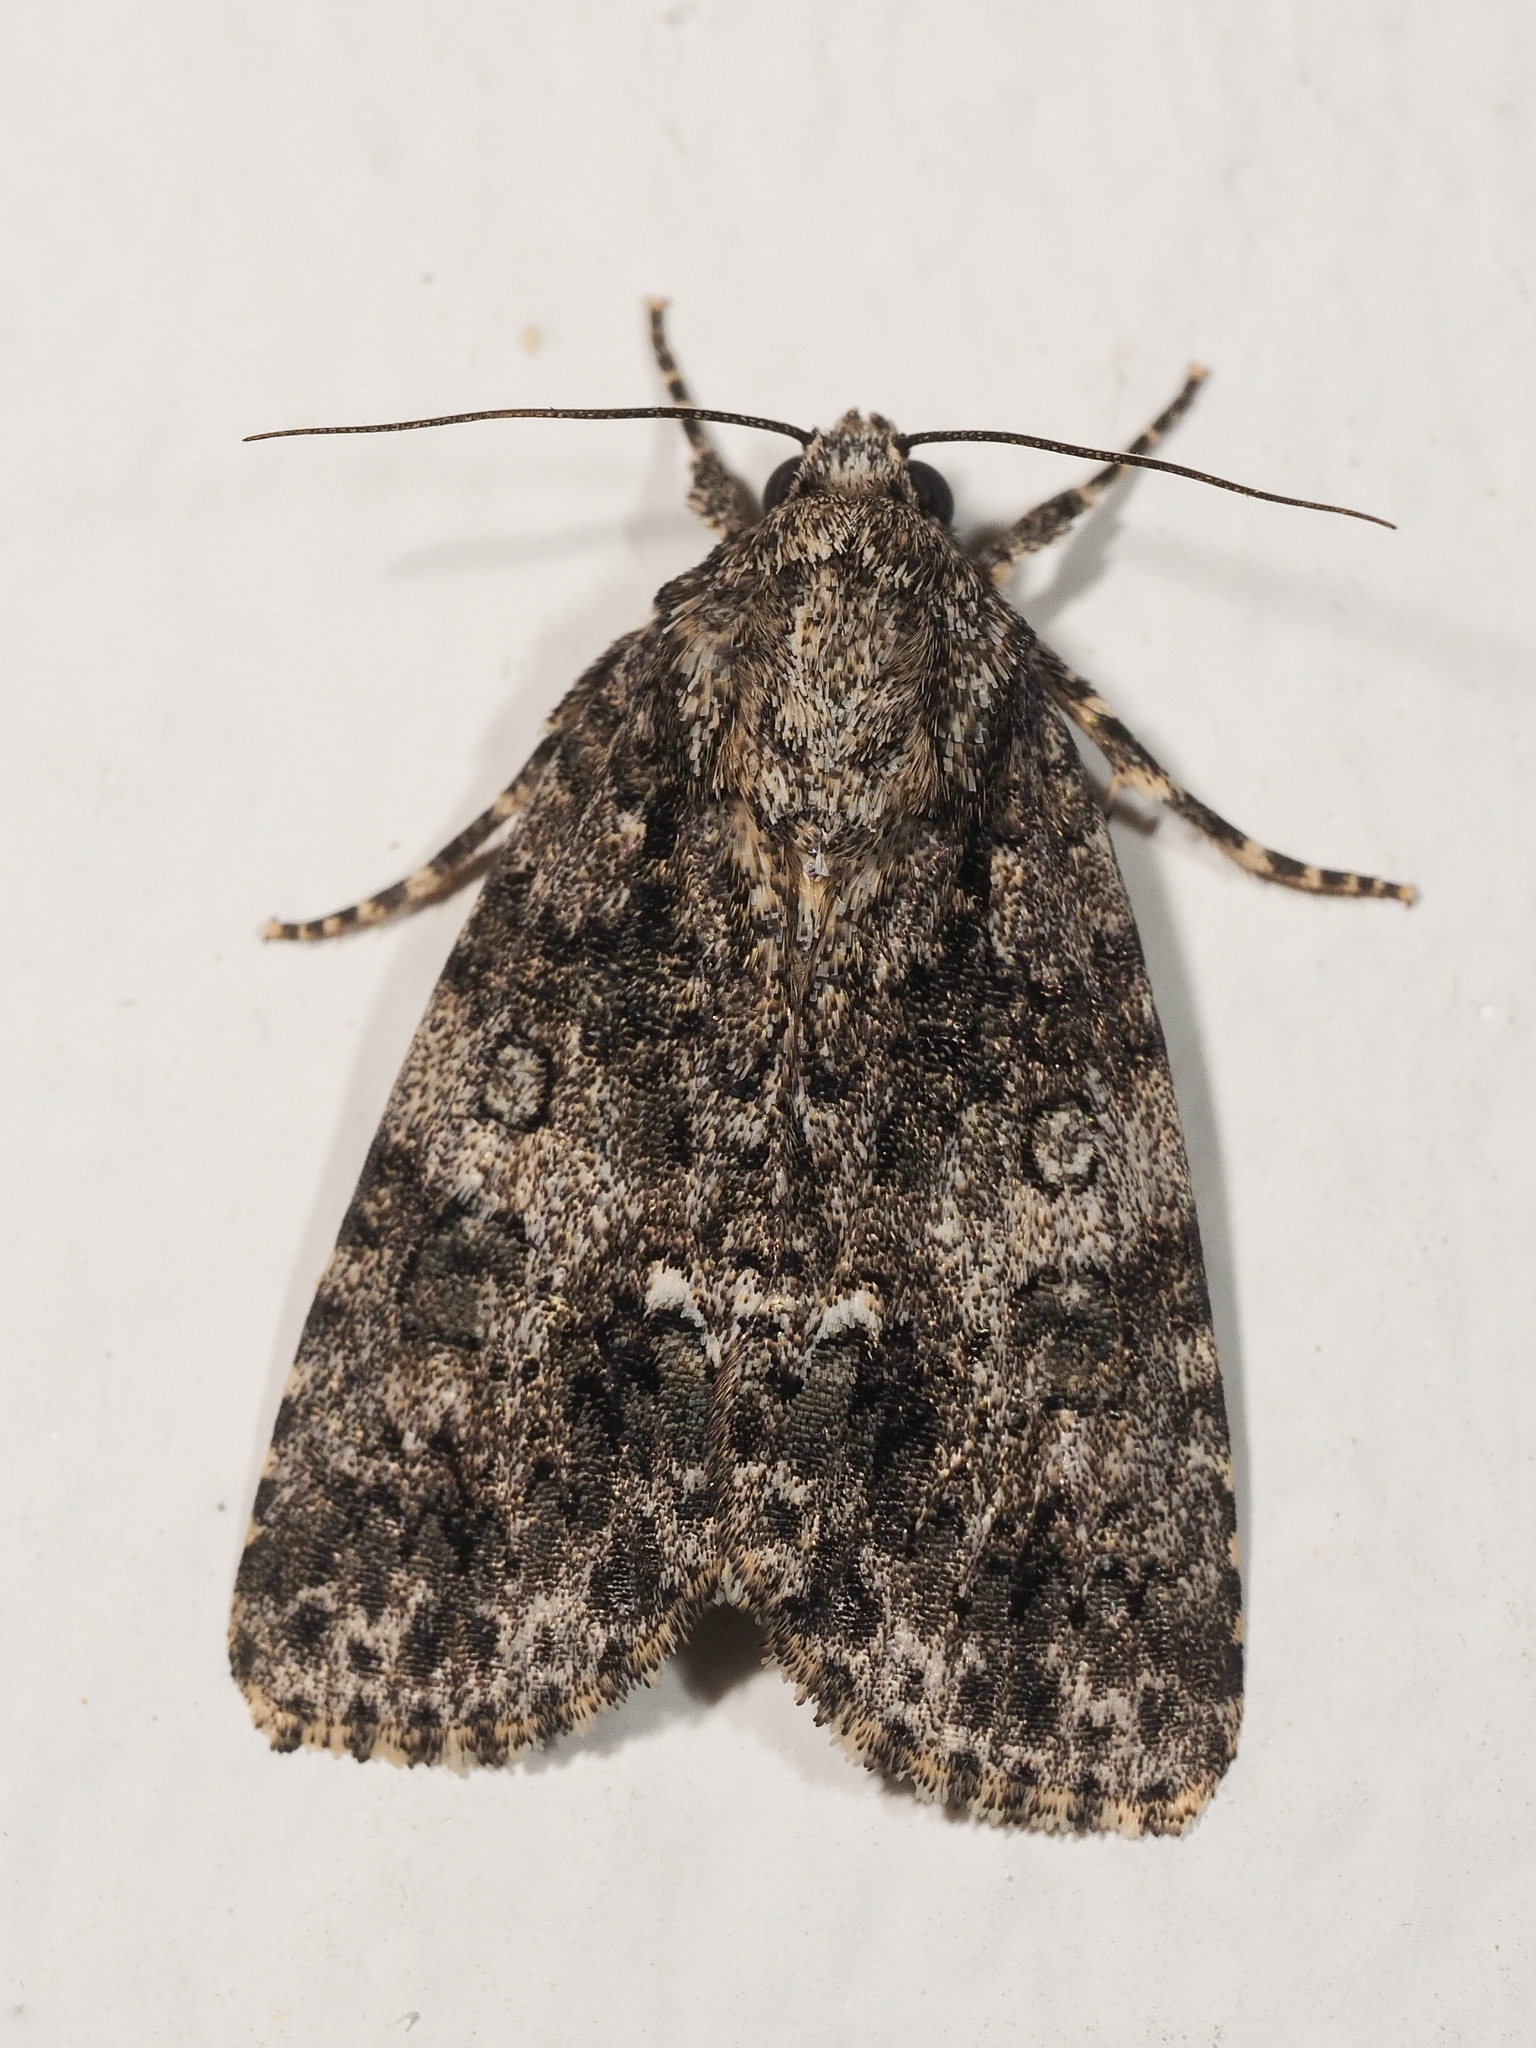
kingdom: Animalia
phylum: Arthropoda
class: Insecta
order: Lepidoptera
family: Noctuidae
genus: Acronicta
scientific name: Acronicta rumicis
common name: Knot grass
